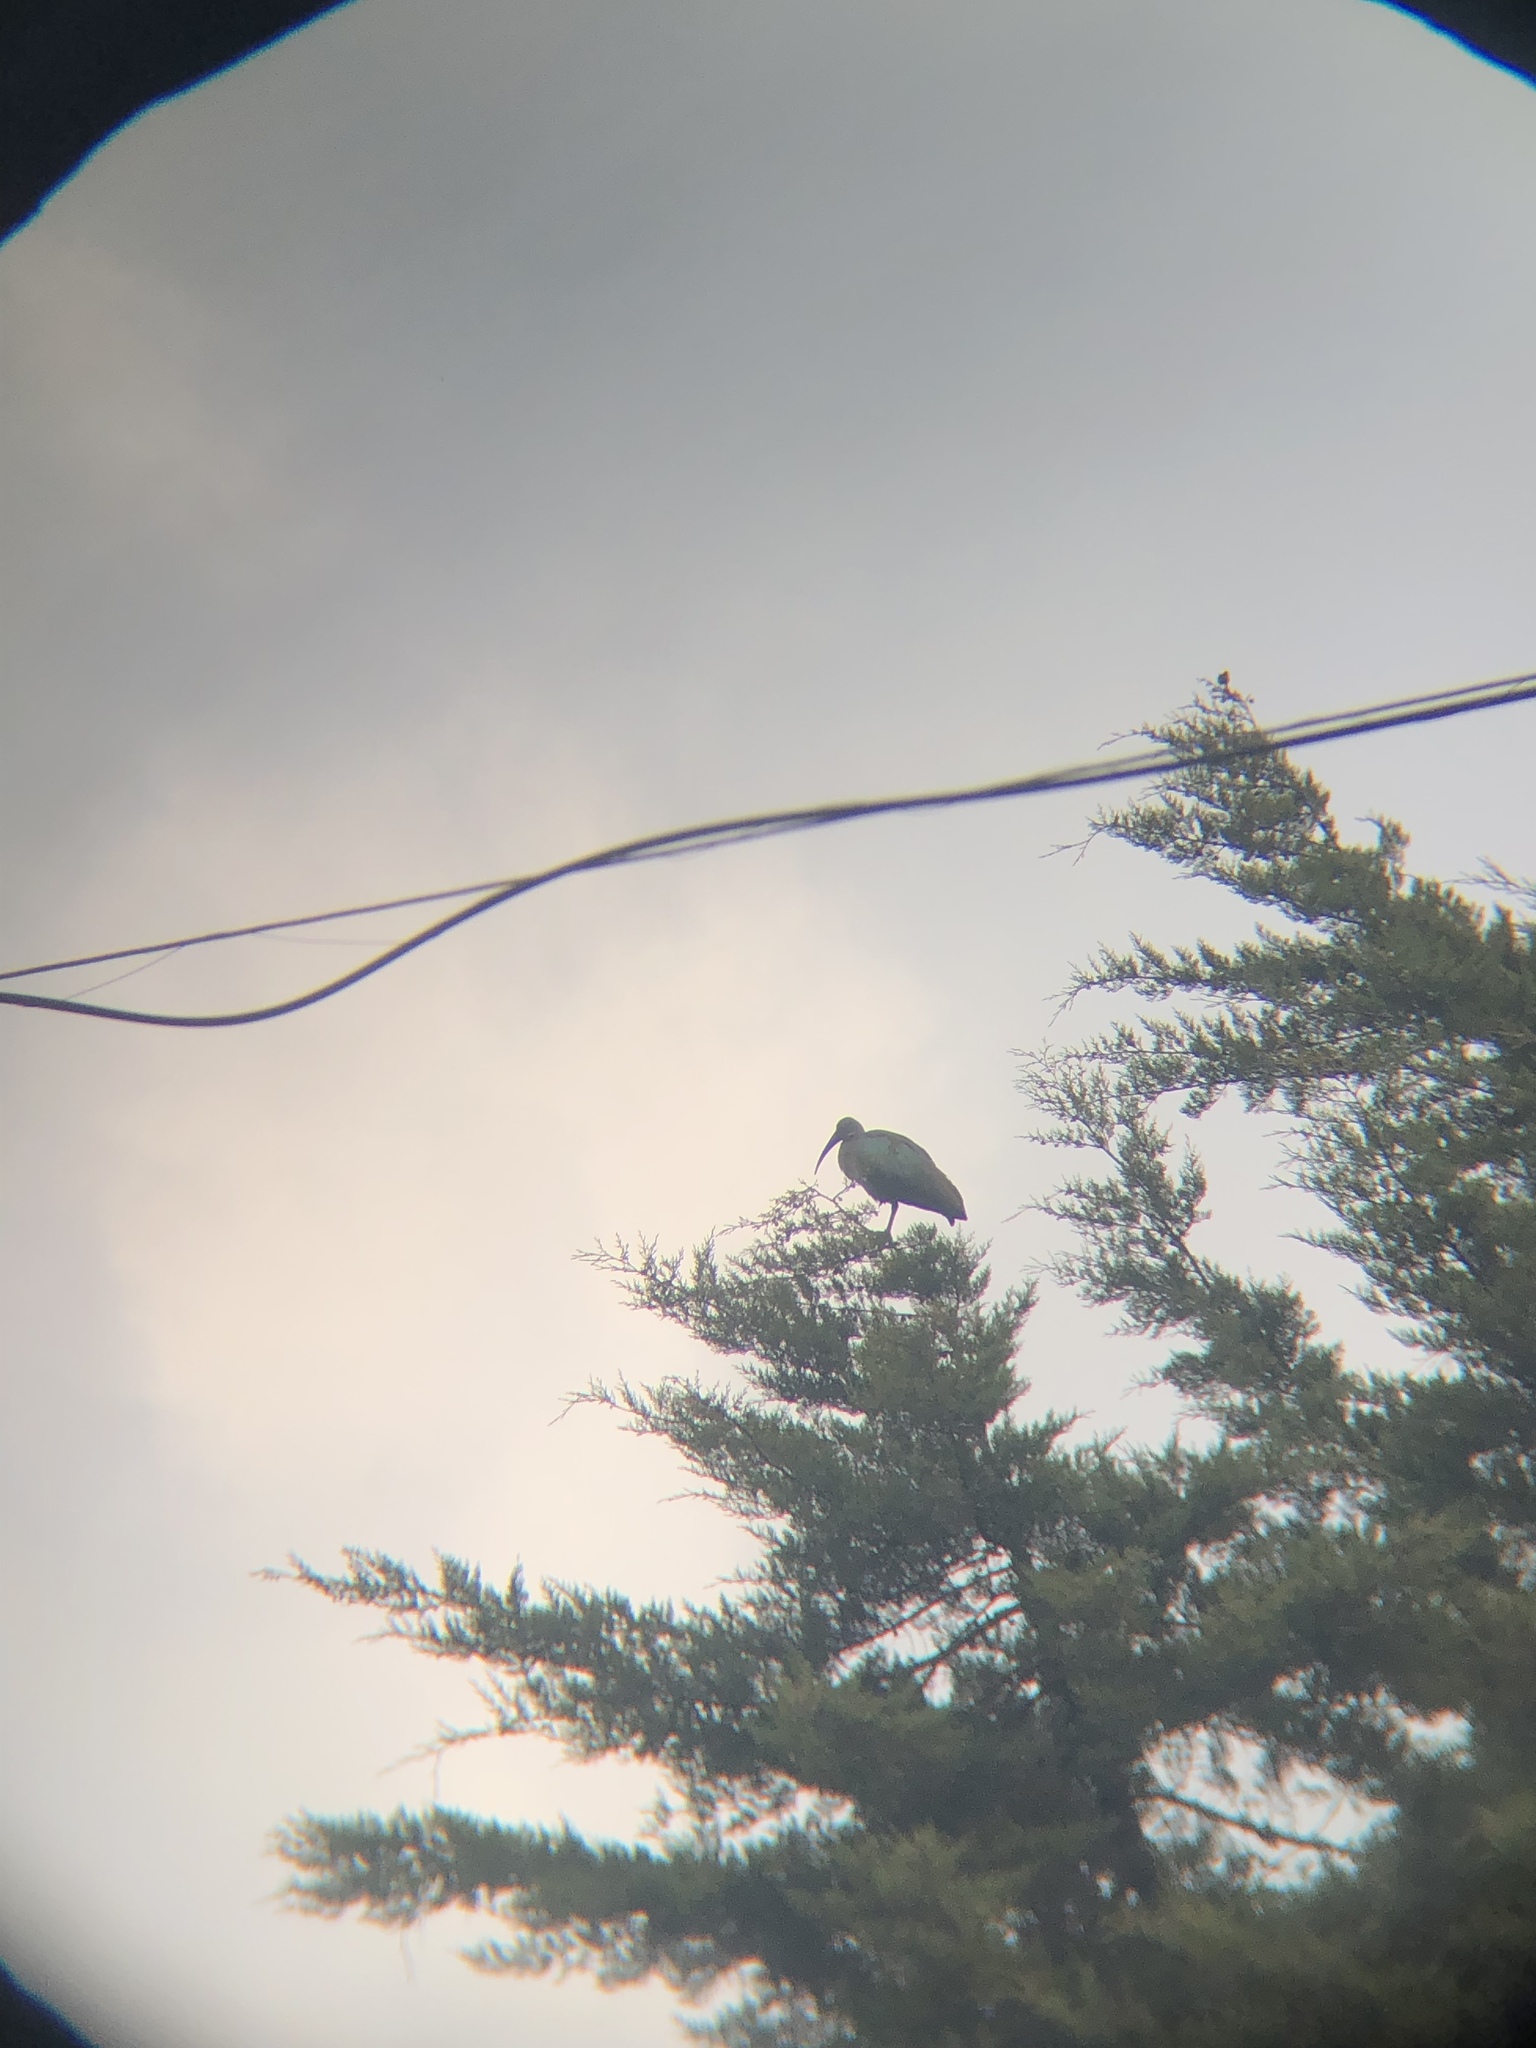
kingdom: Animalia
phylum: Chordata
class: Aves
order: Pelecaniformes
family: Threskiornithidae
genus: Bostrychia
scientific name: Bostrychia hagedash
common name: Hadada ibis
